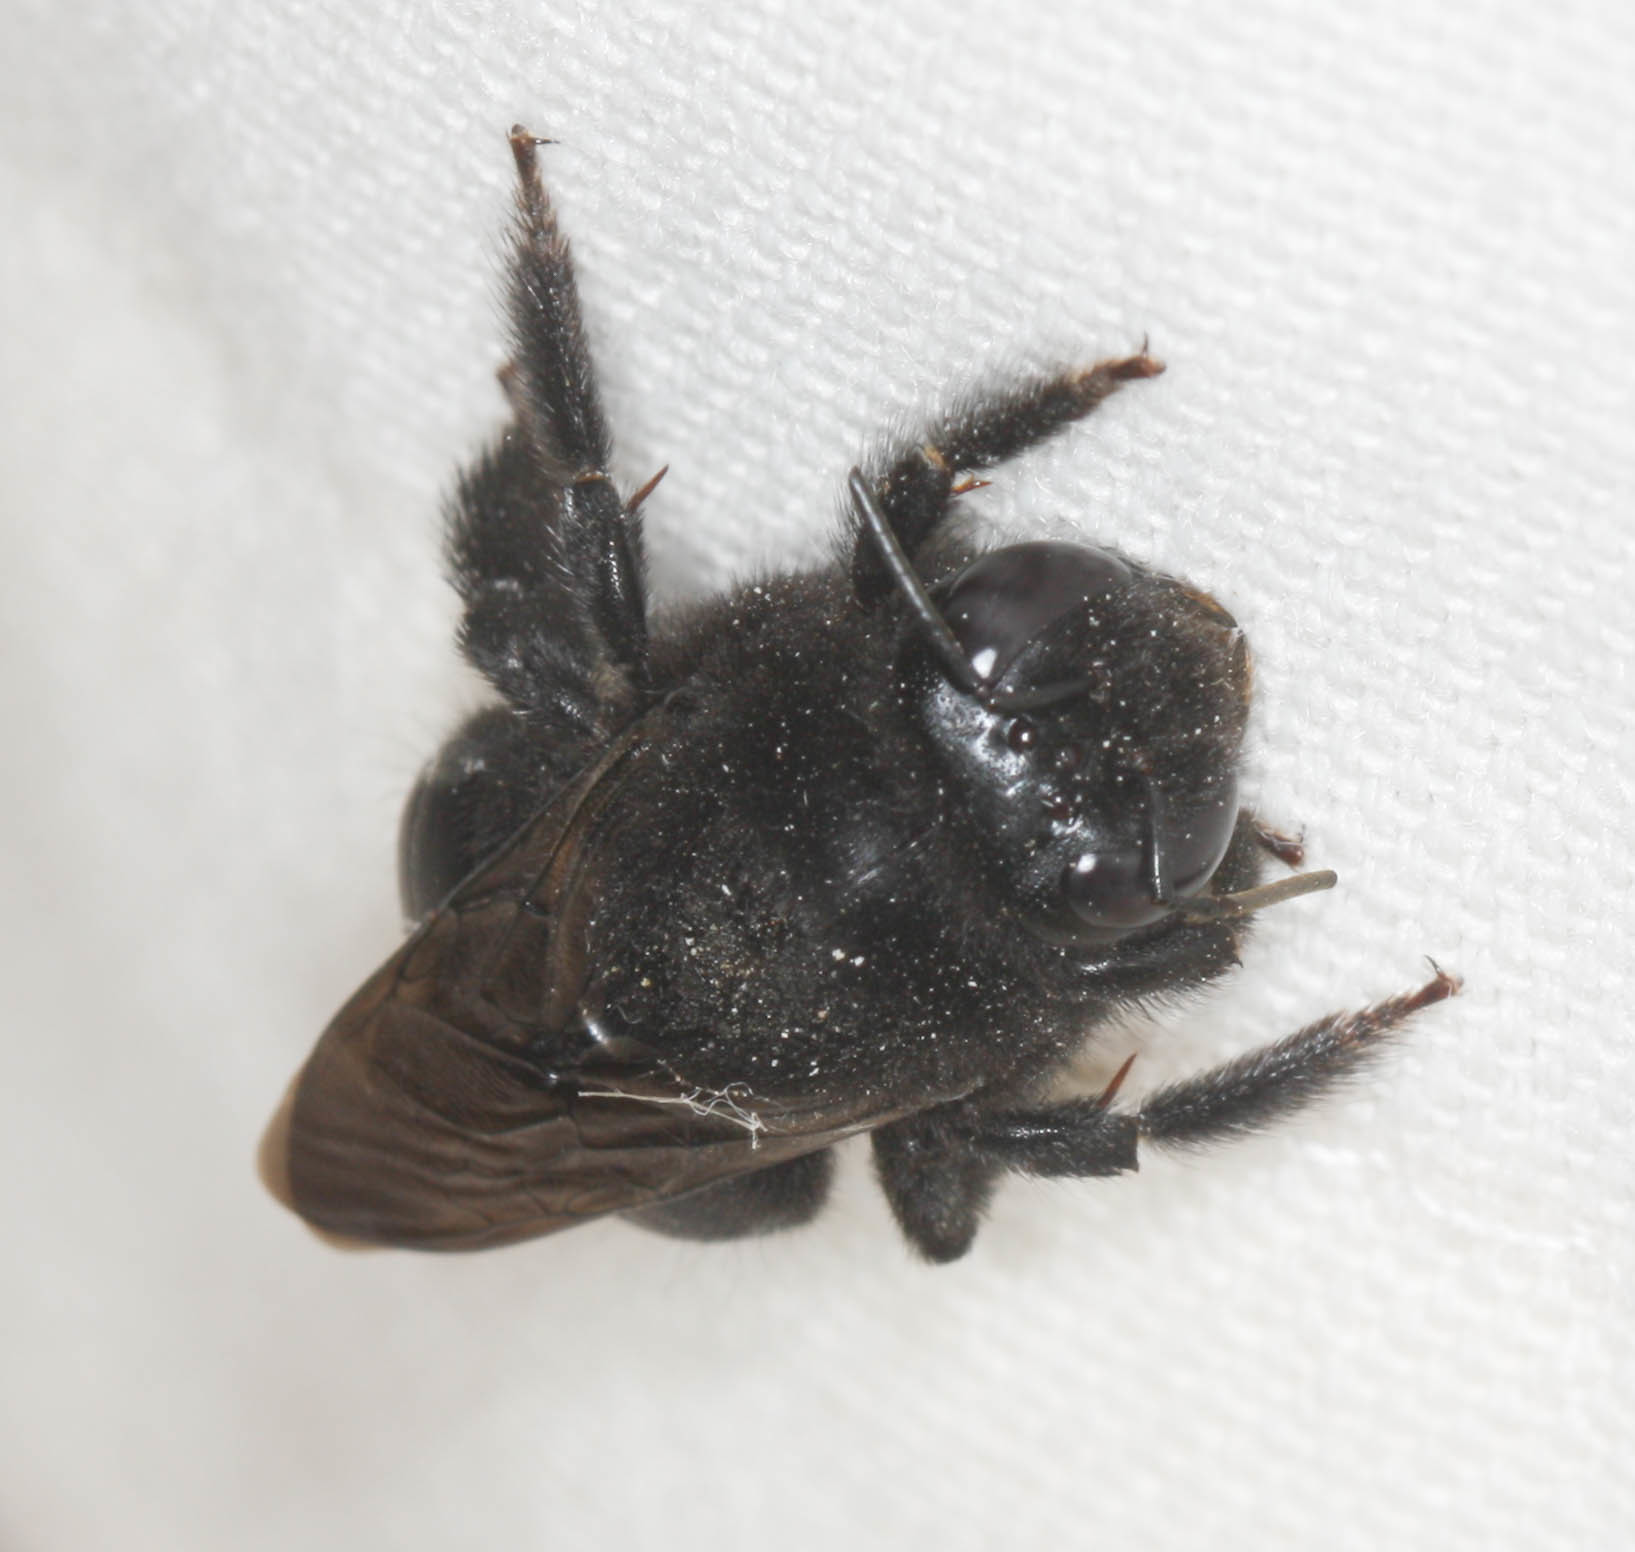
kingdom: Animalia
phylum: Arthropoda
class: Insecta
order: Hymenoptera
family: Apidae
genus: Xylocopa
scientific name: Xylocopa sonorina
